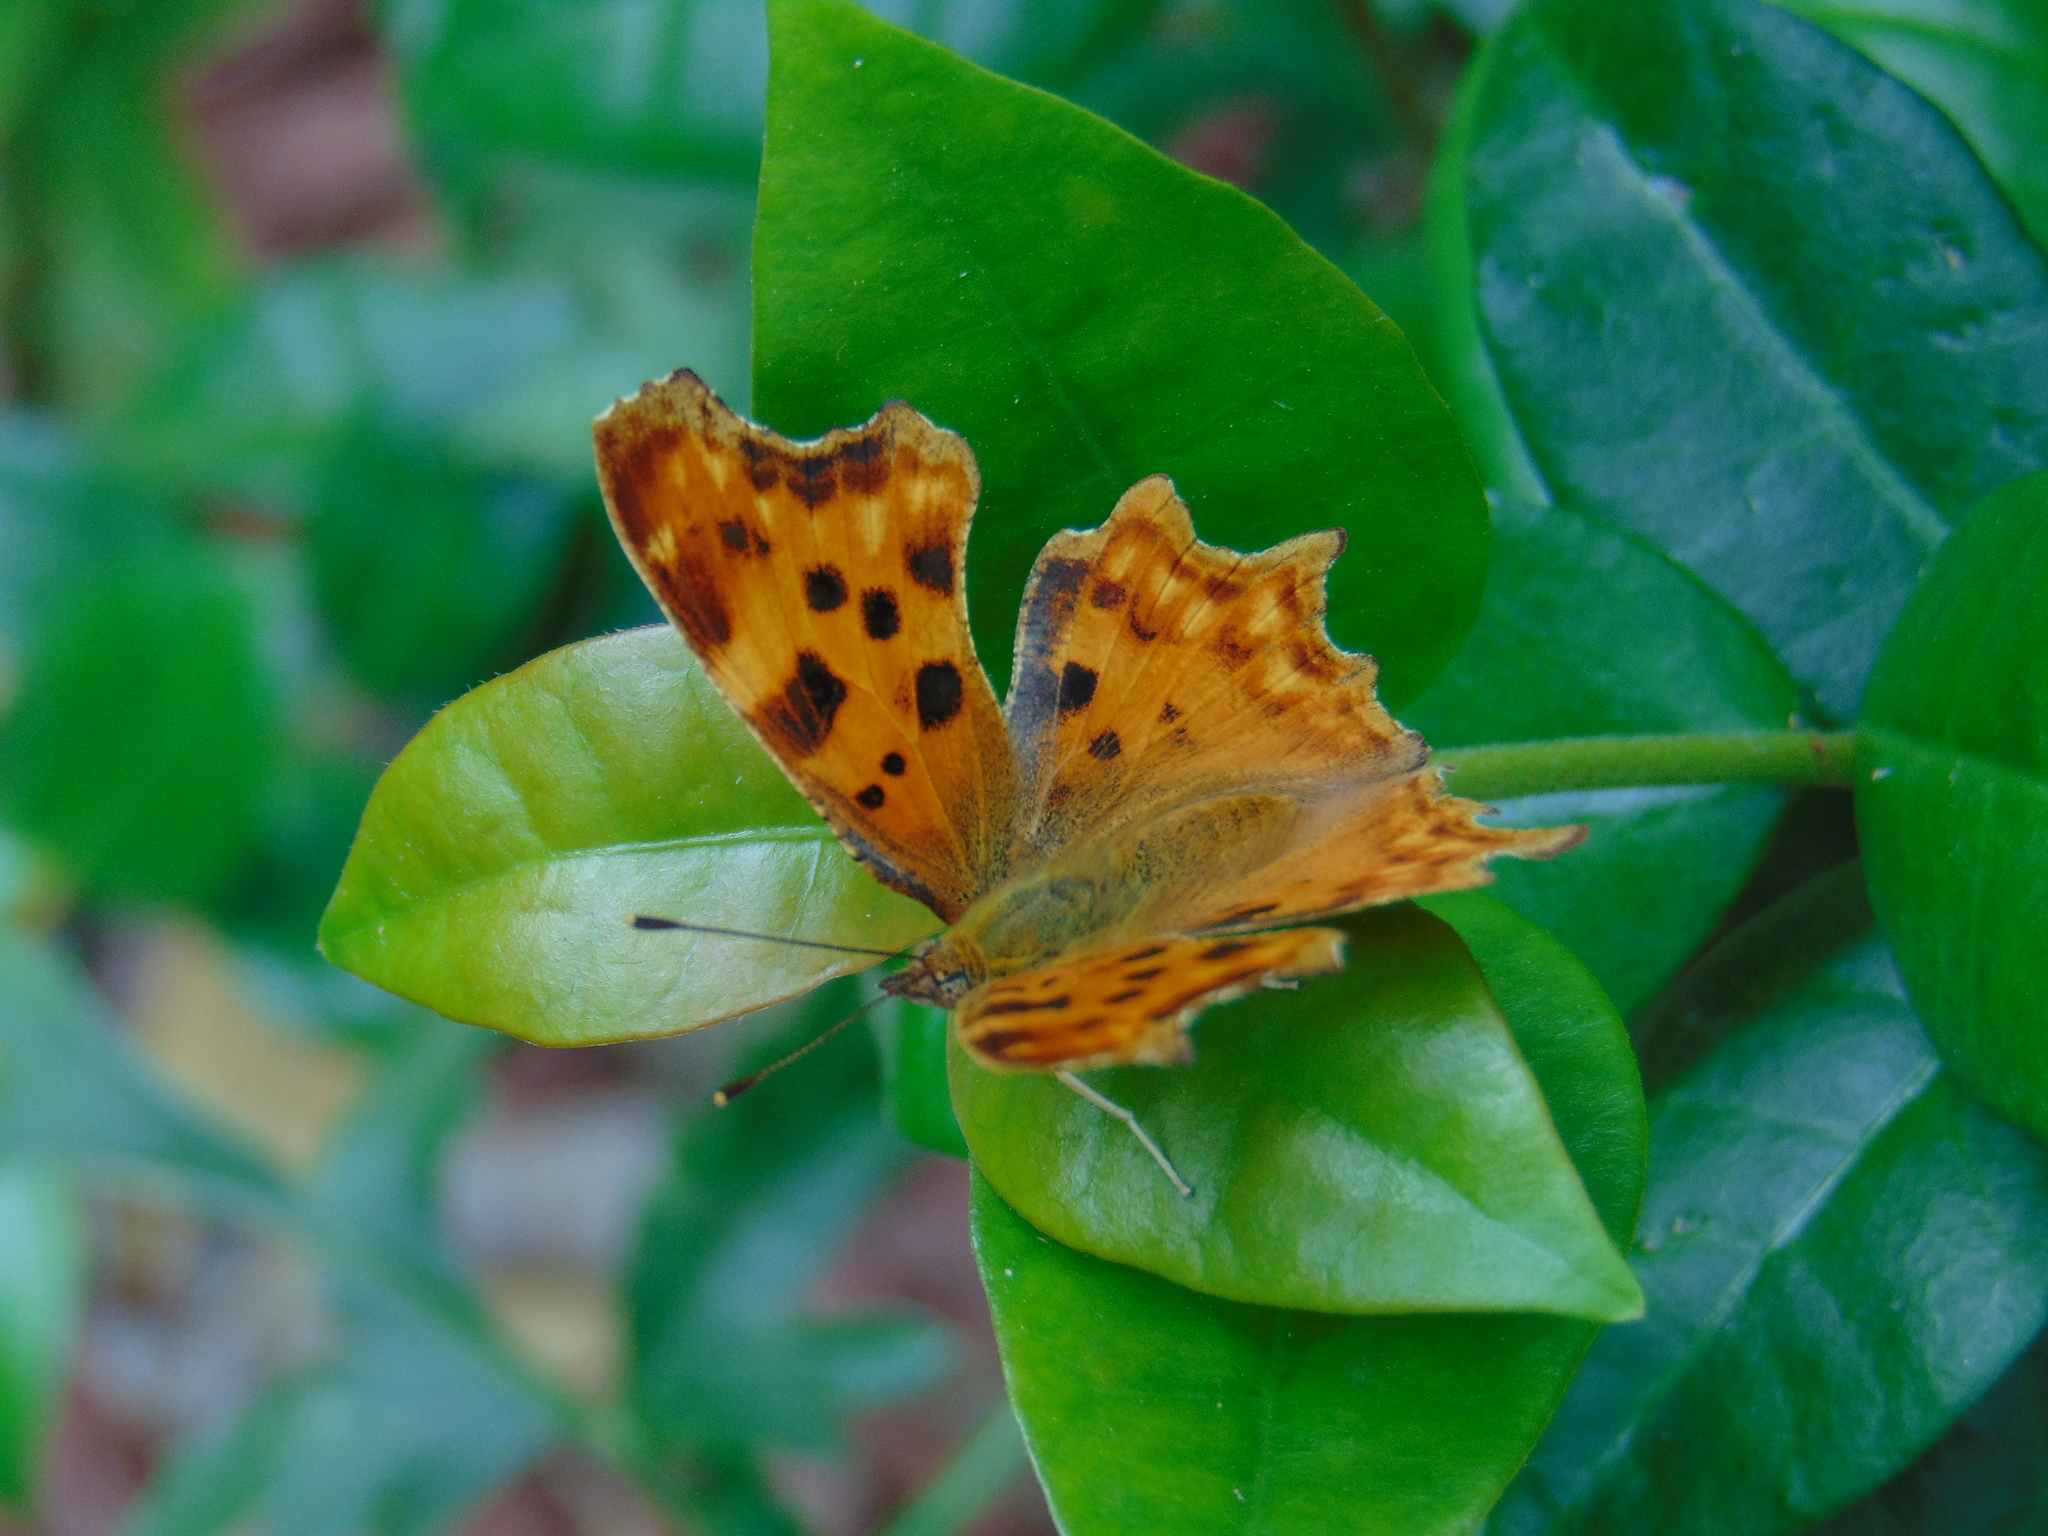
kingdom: Animalia
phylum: Arthropoda
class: Insecta
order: Lepidoptera
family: Nymphalidae
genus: Polygonia
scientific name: Polygonia c-album
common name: Comma
